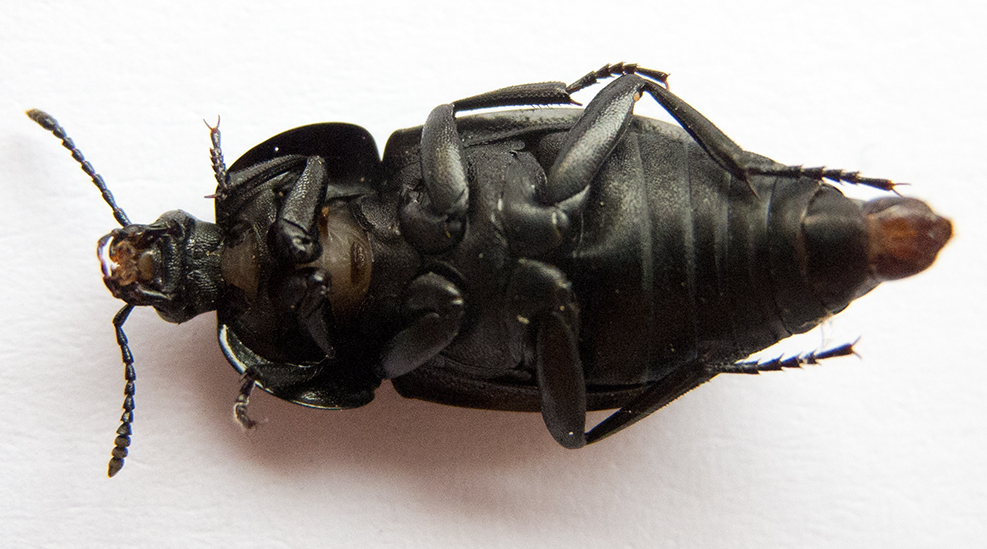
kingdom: Animalia
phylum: Arthropoda
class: Insecta
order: Coleoptera
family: Staphylinidae
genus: Silpha
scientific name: Silpha obscura
